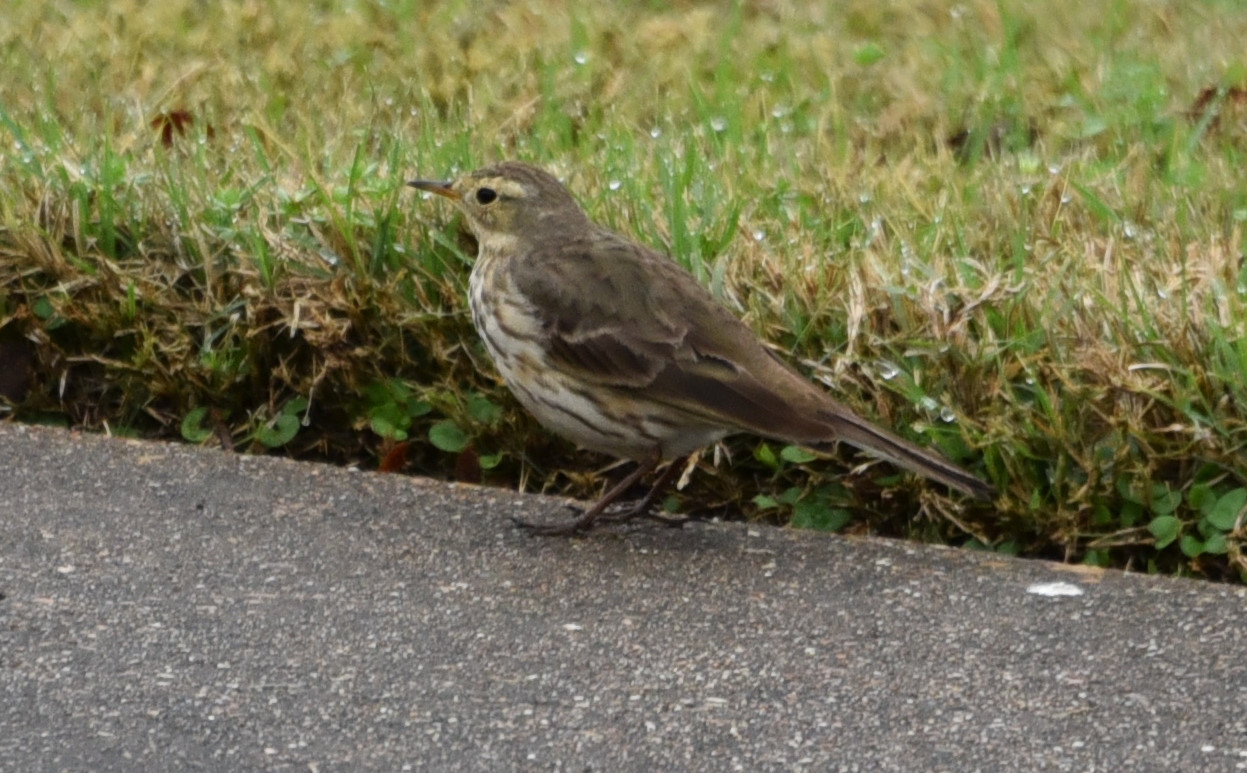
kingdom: Animalia
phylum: Chordata
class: Aves
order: Passeriformes
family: Motacillidae
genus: Anthus
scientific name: Anthus rubescens
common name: Buff-bellied pipit
